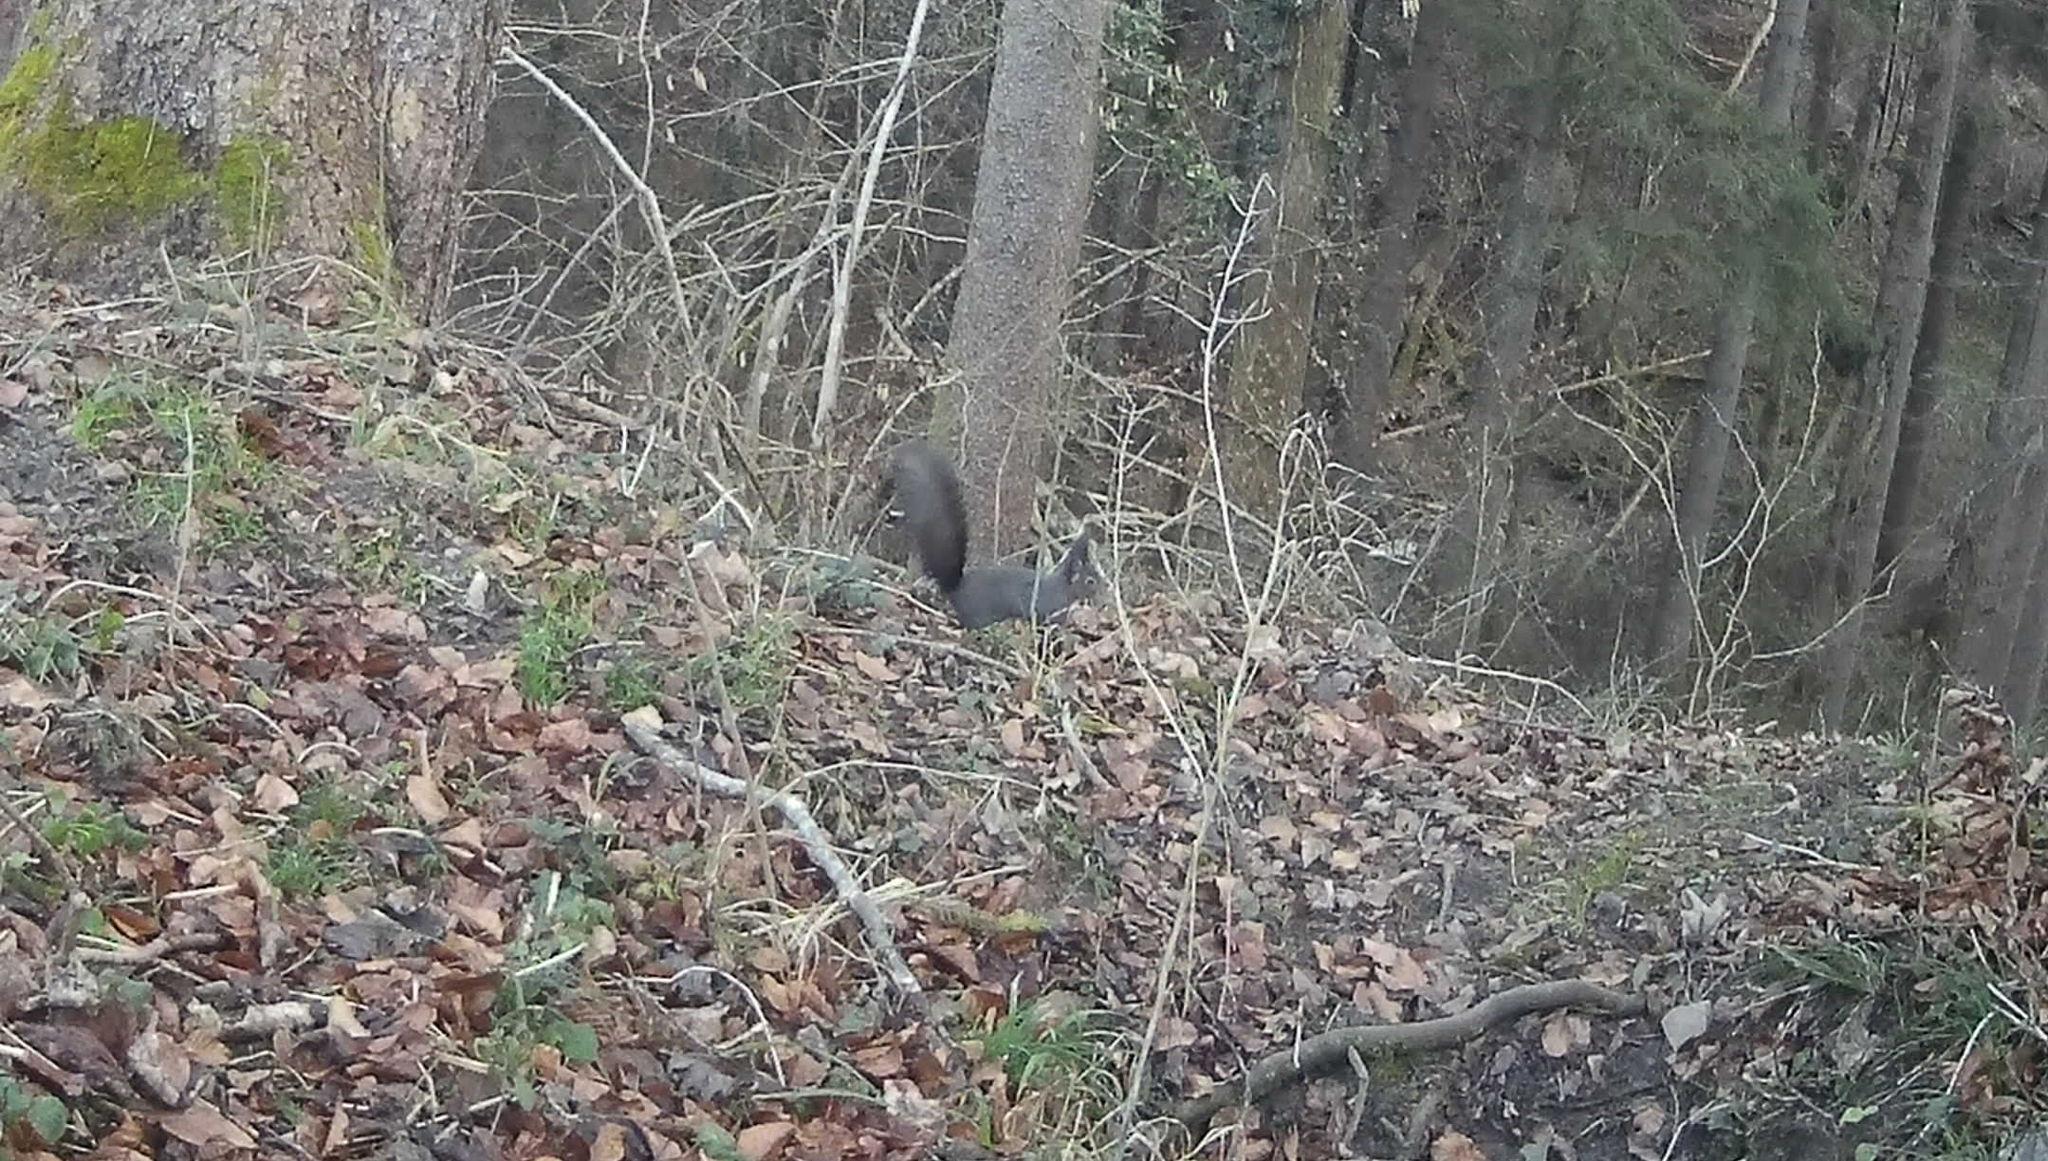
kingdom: Animalia
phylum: Chordata
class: Mammalia
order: Rodentia
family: Sciuridae
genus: Sciurus
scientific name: Sciurus vulgaris
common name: Eurasian red squirrel
